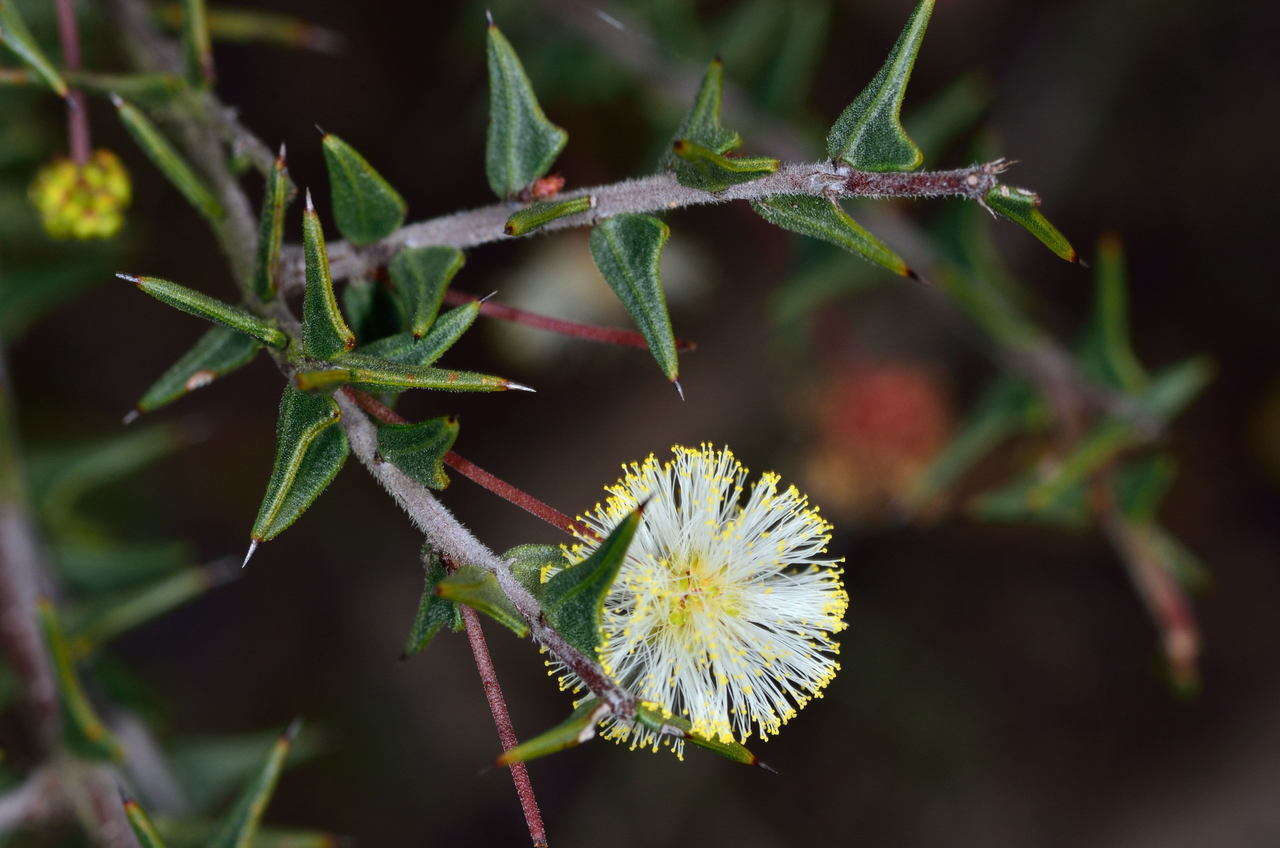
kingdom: Plantae
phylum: Tracheophyta
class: Magnoliopsida
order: Fabales
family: Fabaceae
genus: Acacia
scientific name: Acacia gunnii
